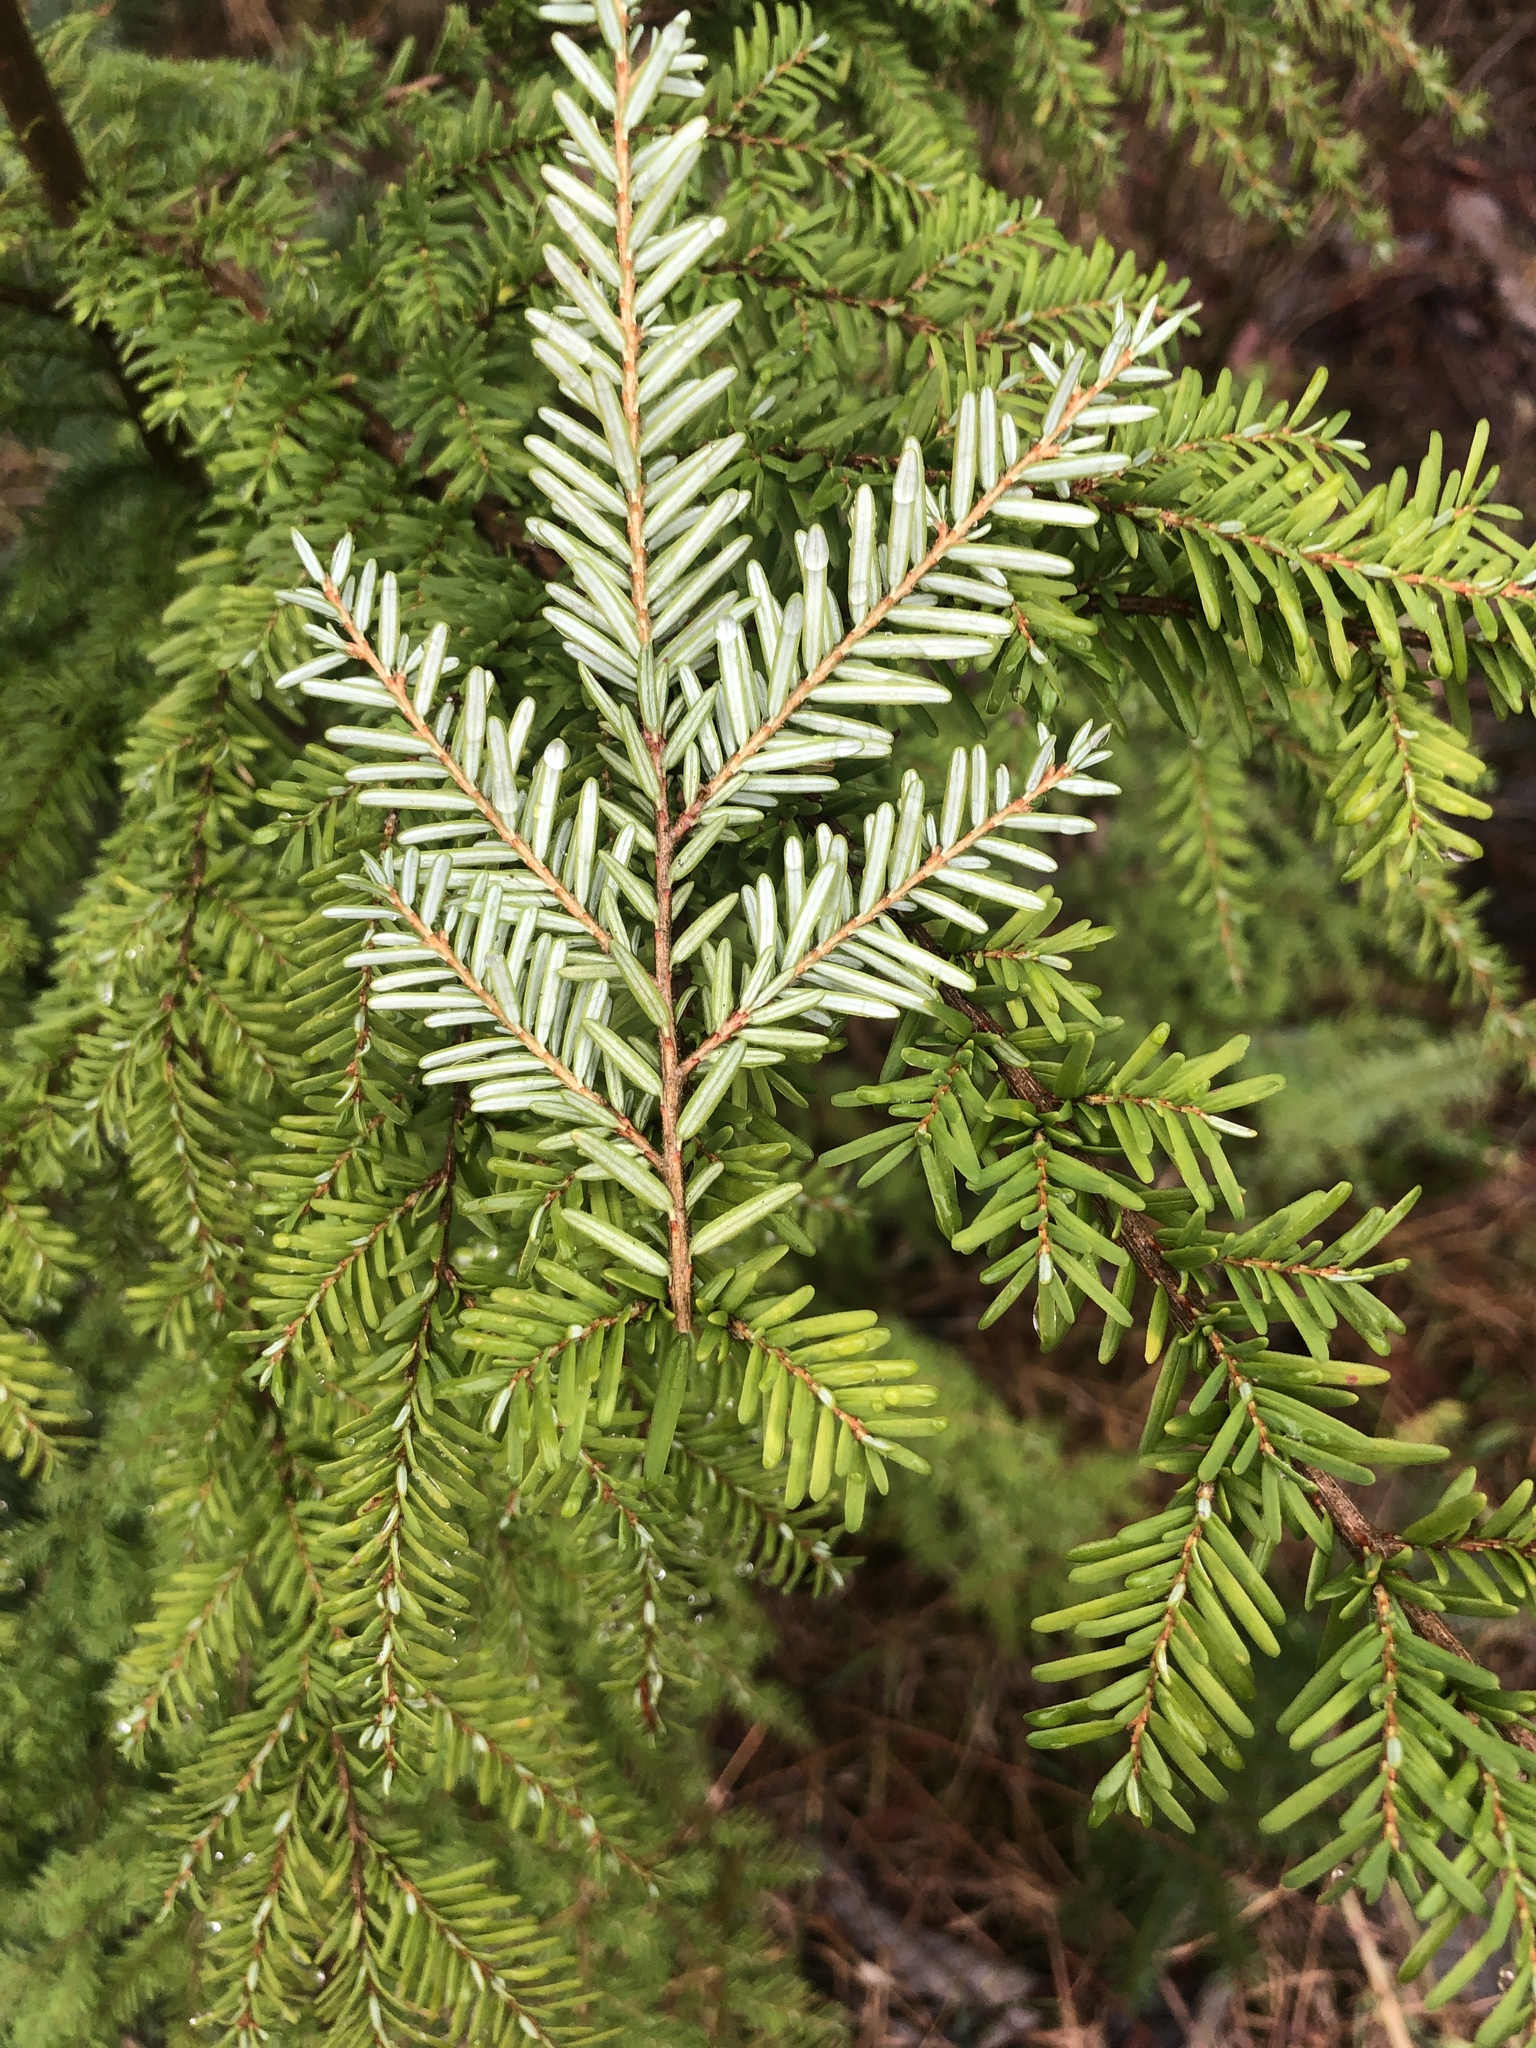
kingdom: Plantae
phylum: Tracheophyta
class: Pinopsida
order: Pinales
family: Pinaceae
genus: Tsuga
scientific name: Tsuga heterophylla
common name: Western hemlock
